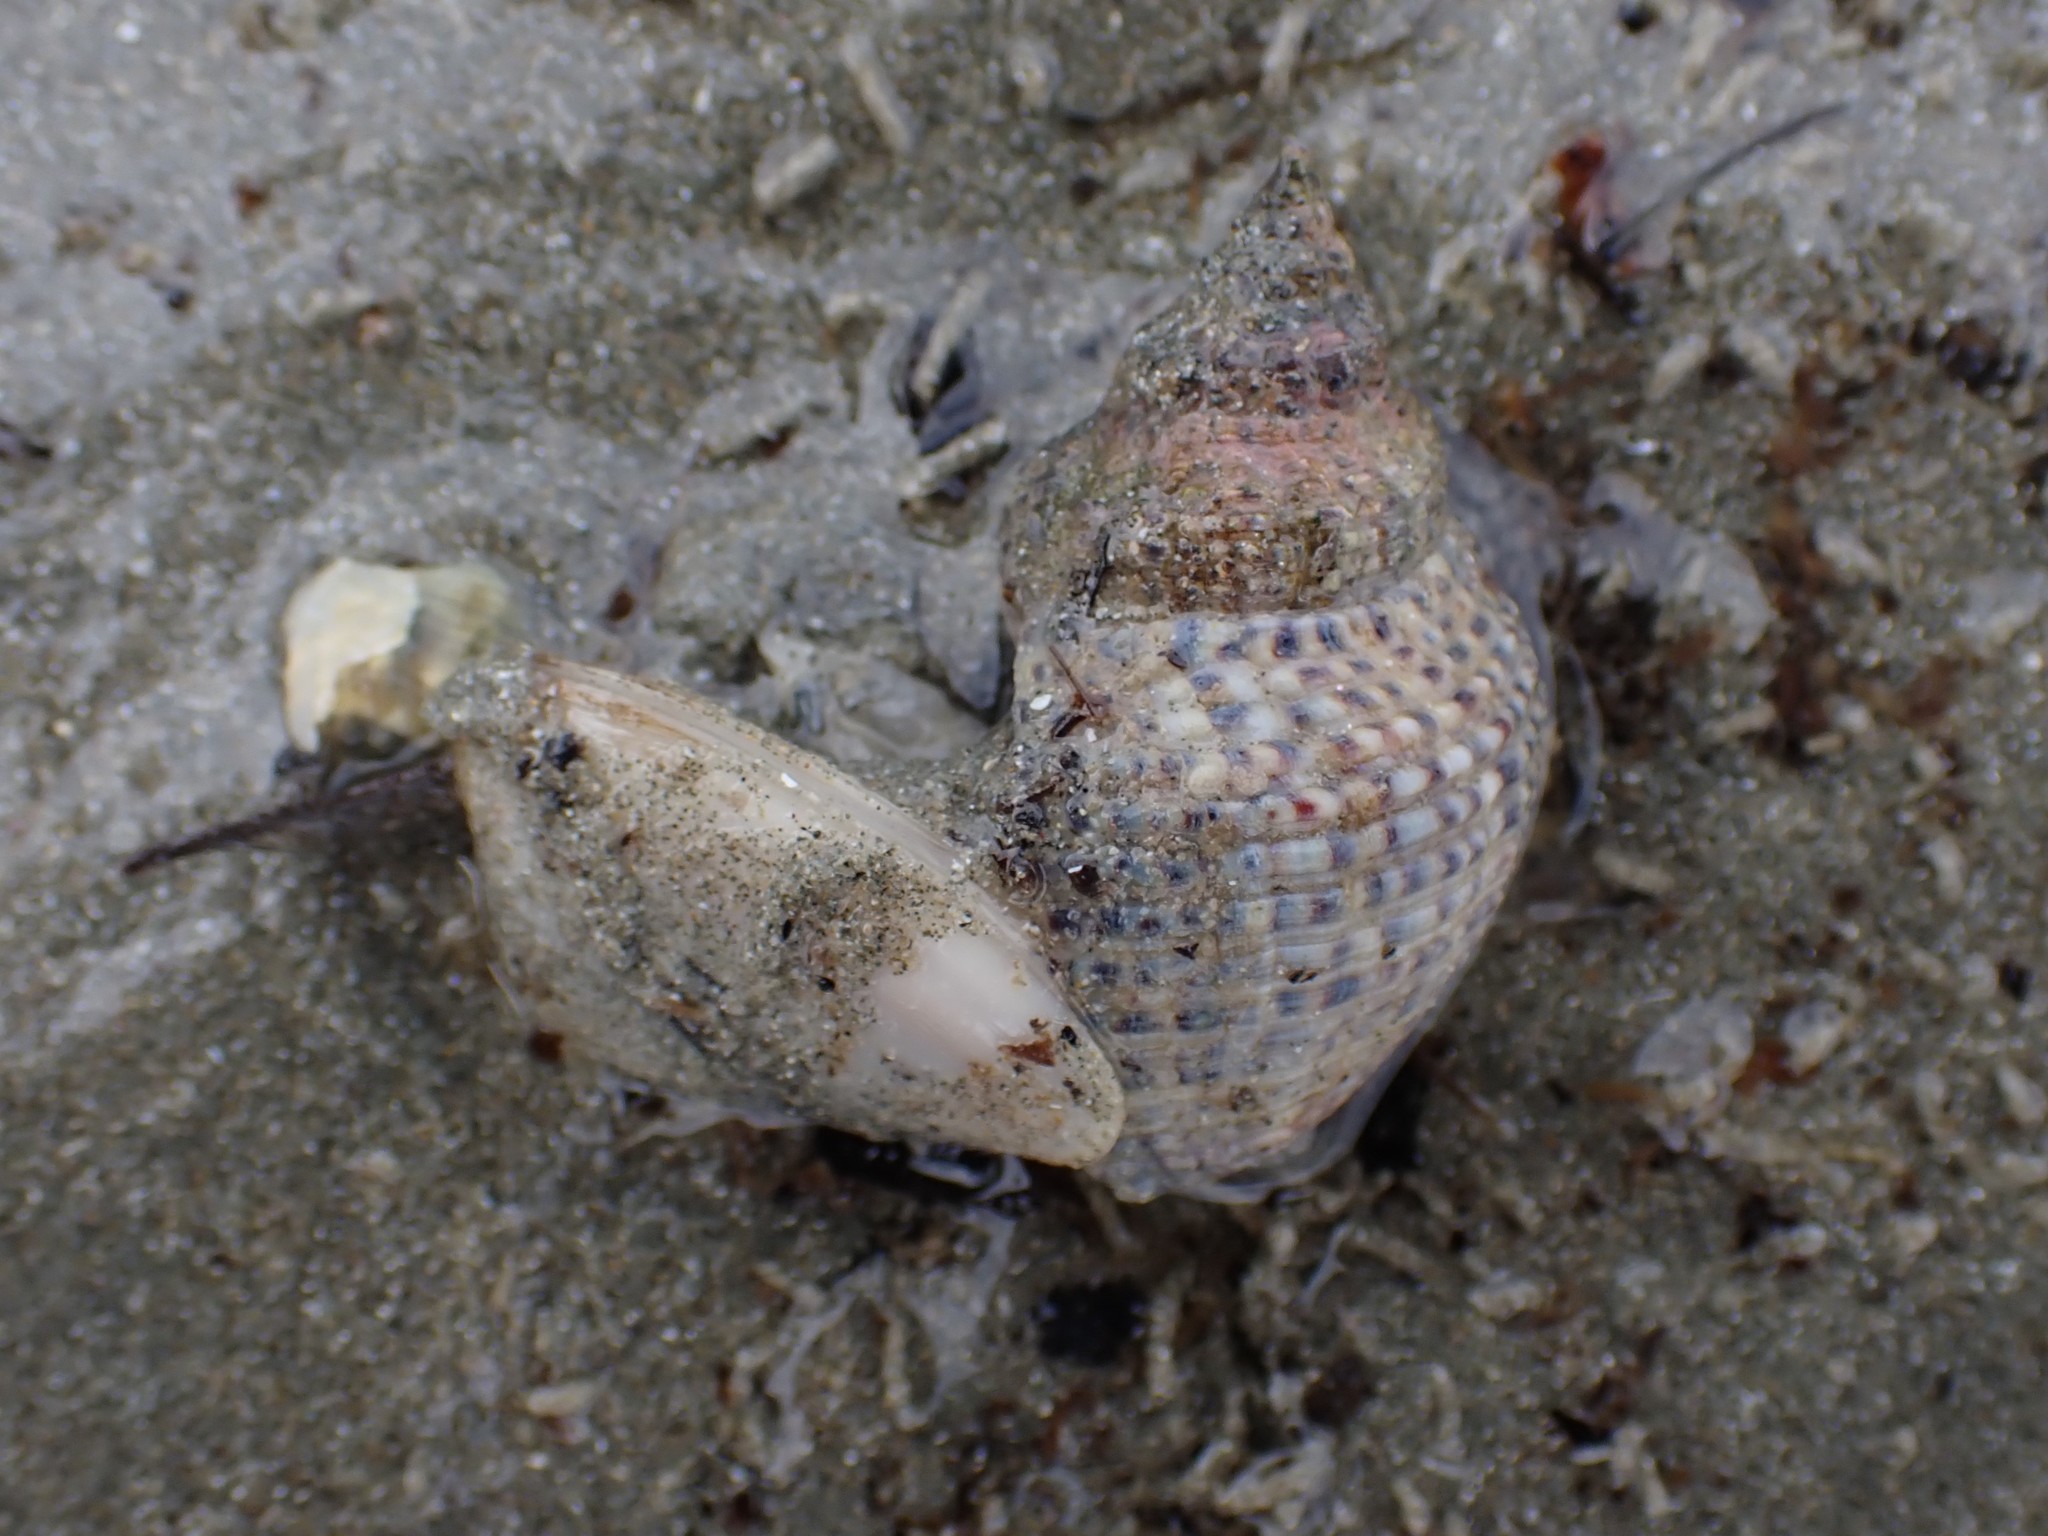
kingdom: Animalia
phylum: Mollusca
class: Gastropoda
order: Neogastropoda
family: Cominellidae
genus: Cominella
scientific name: Cominella adspersa
